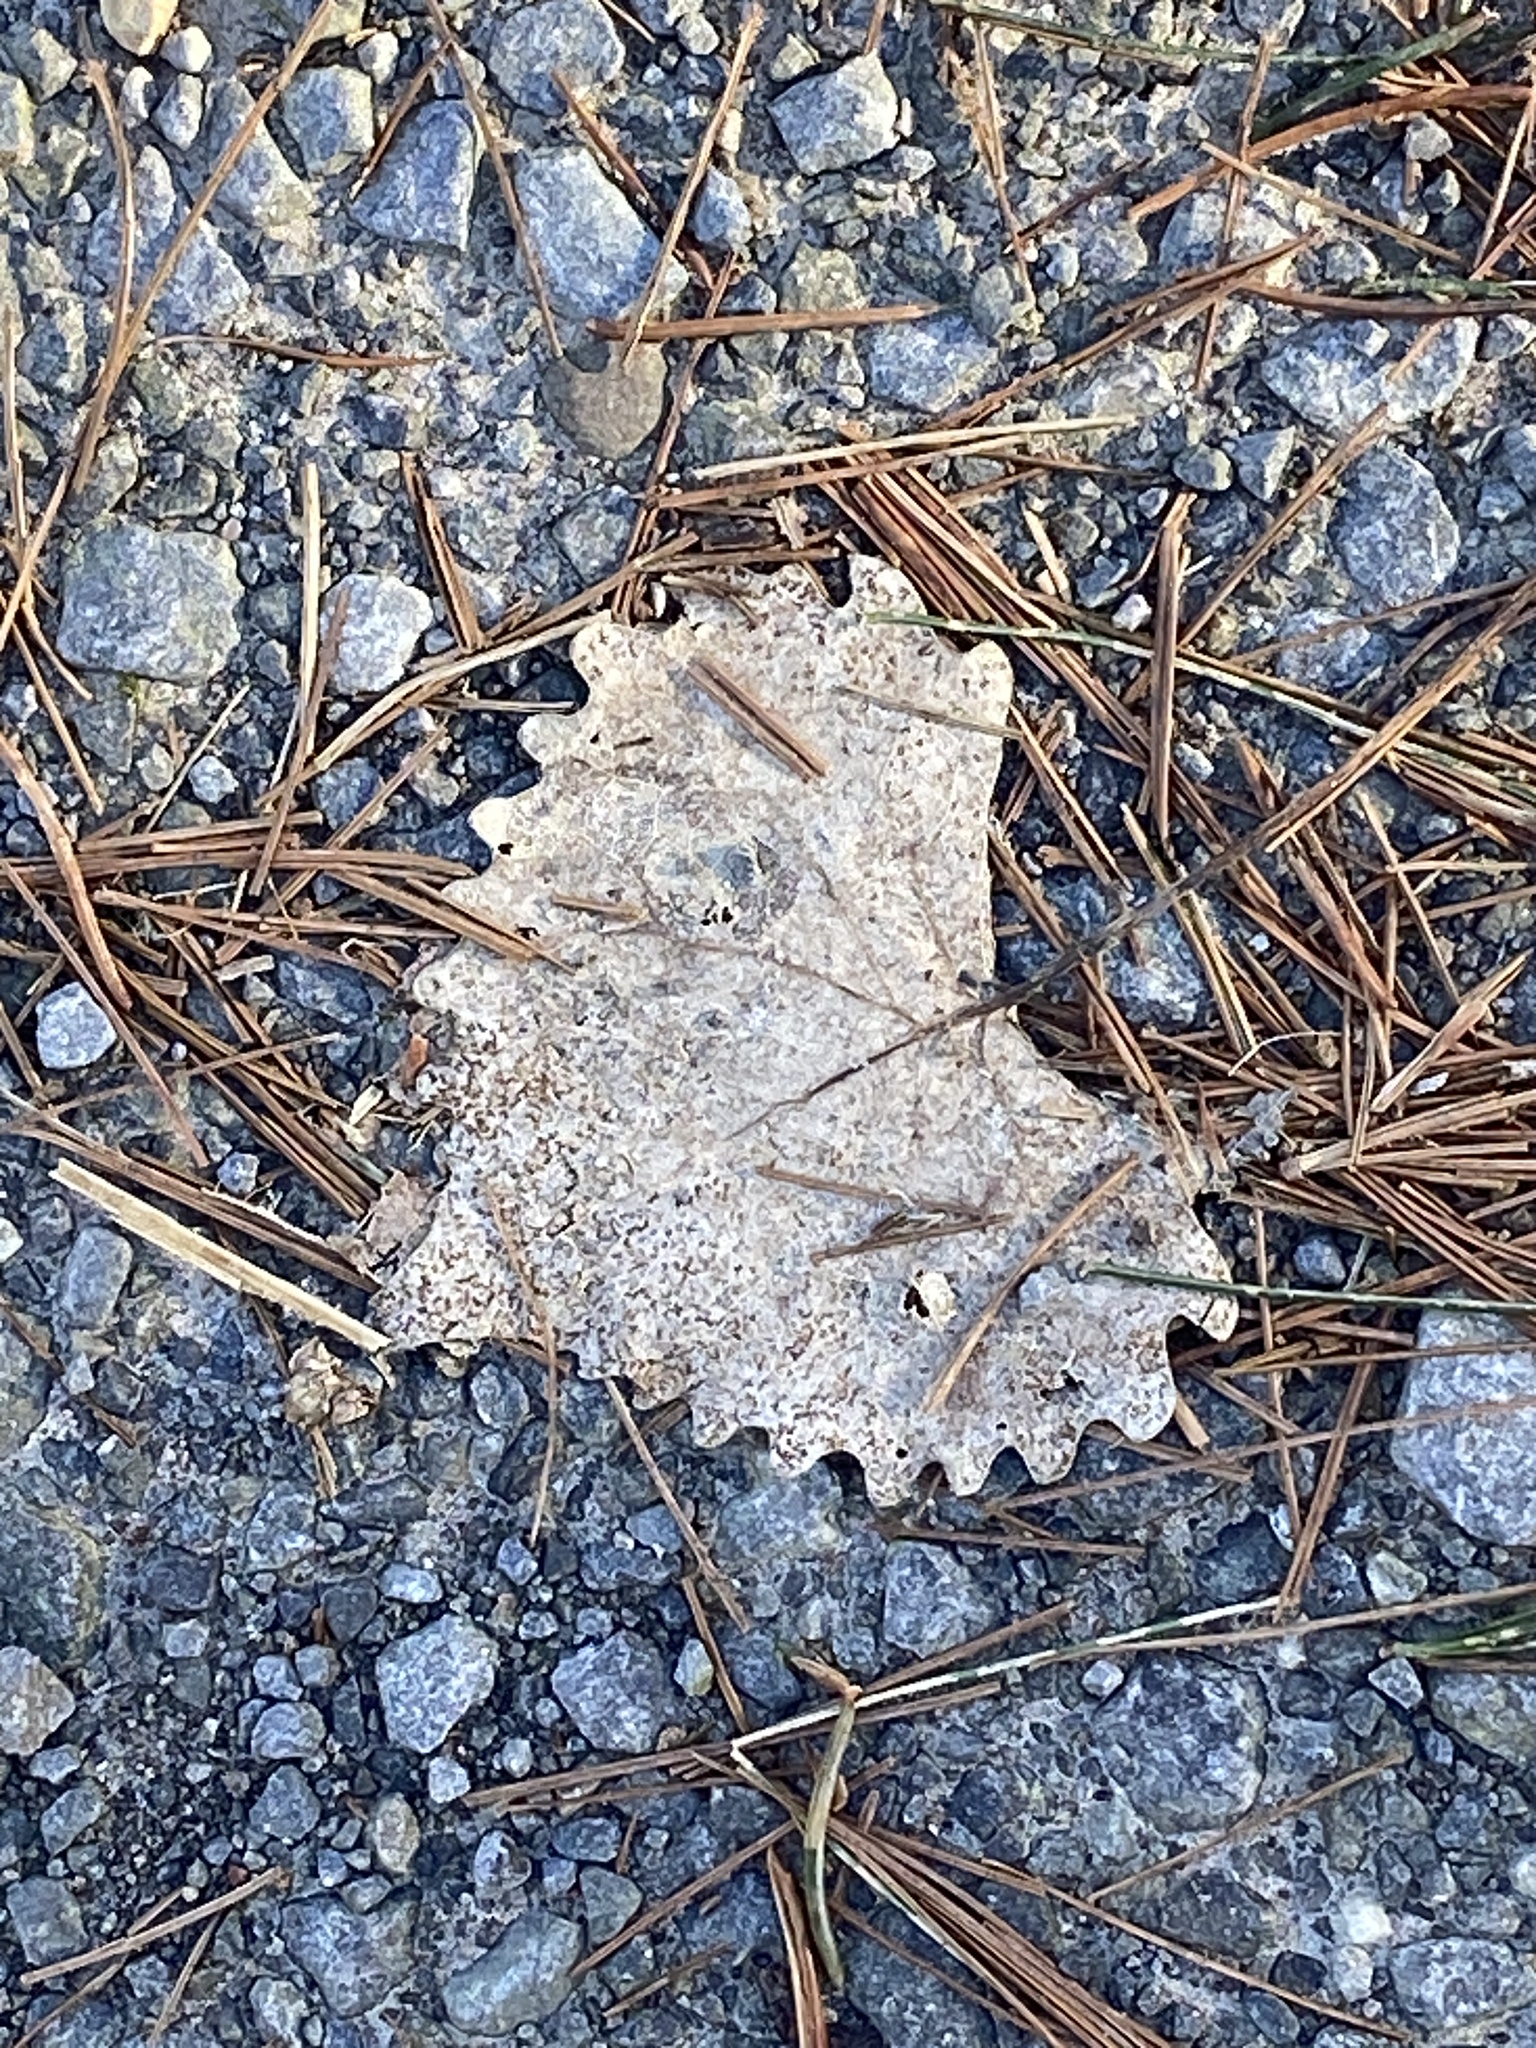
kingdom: Plantae
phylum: Tracheophyta
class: Magnoliopsida
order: Malpighiales
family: Salicaceae
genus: Populus
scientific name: Populus deltoides
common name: Eastern cottonwood
